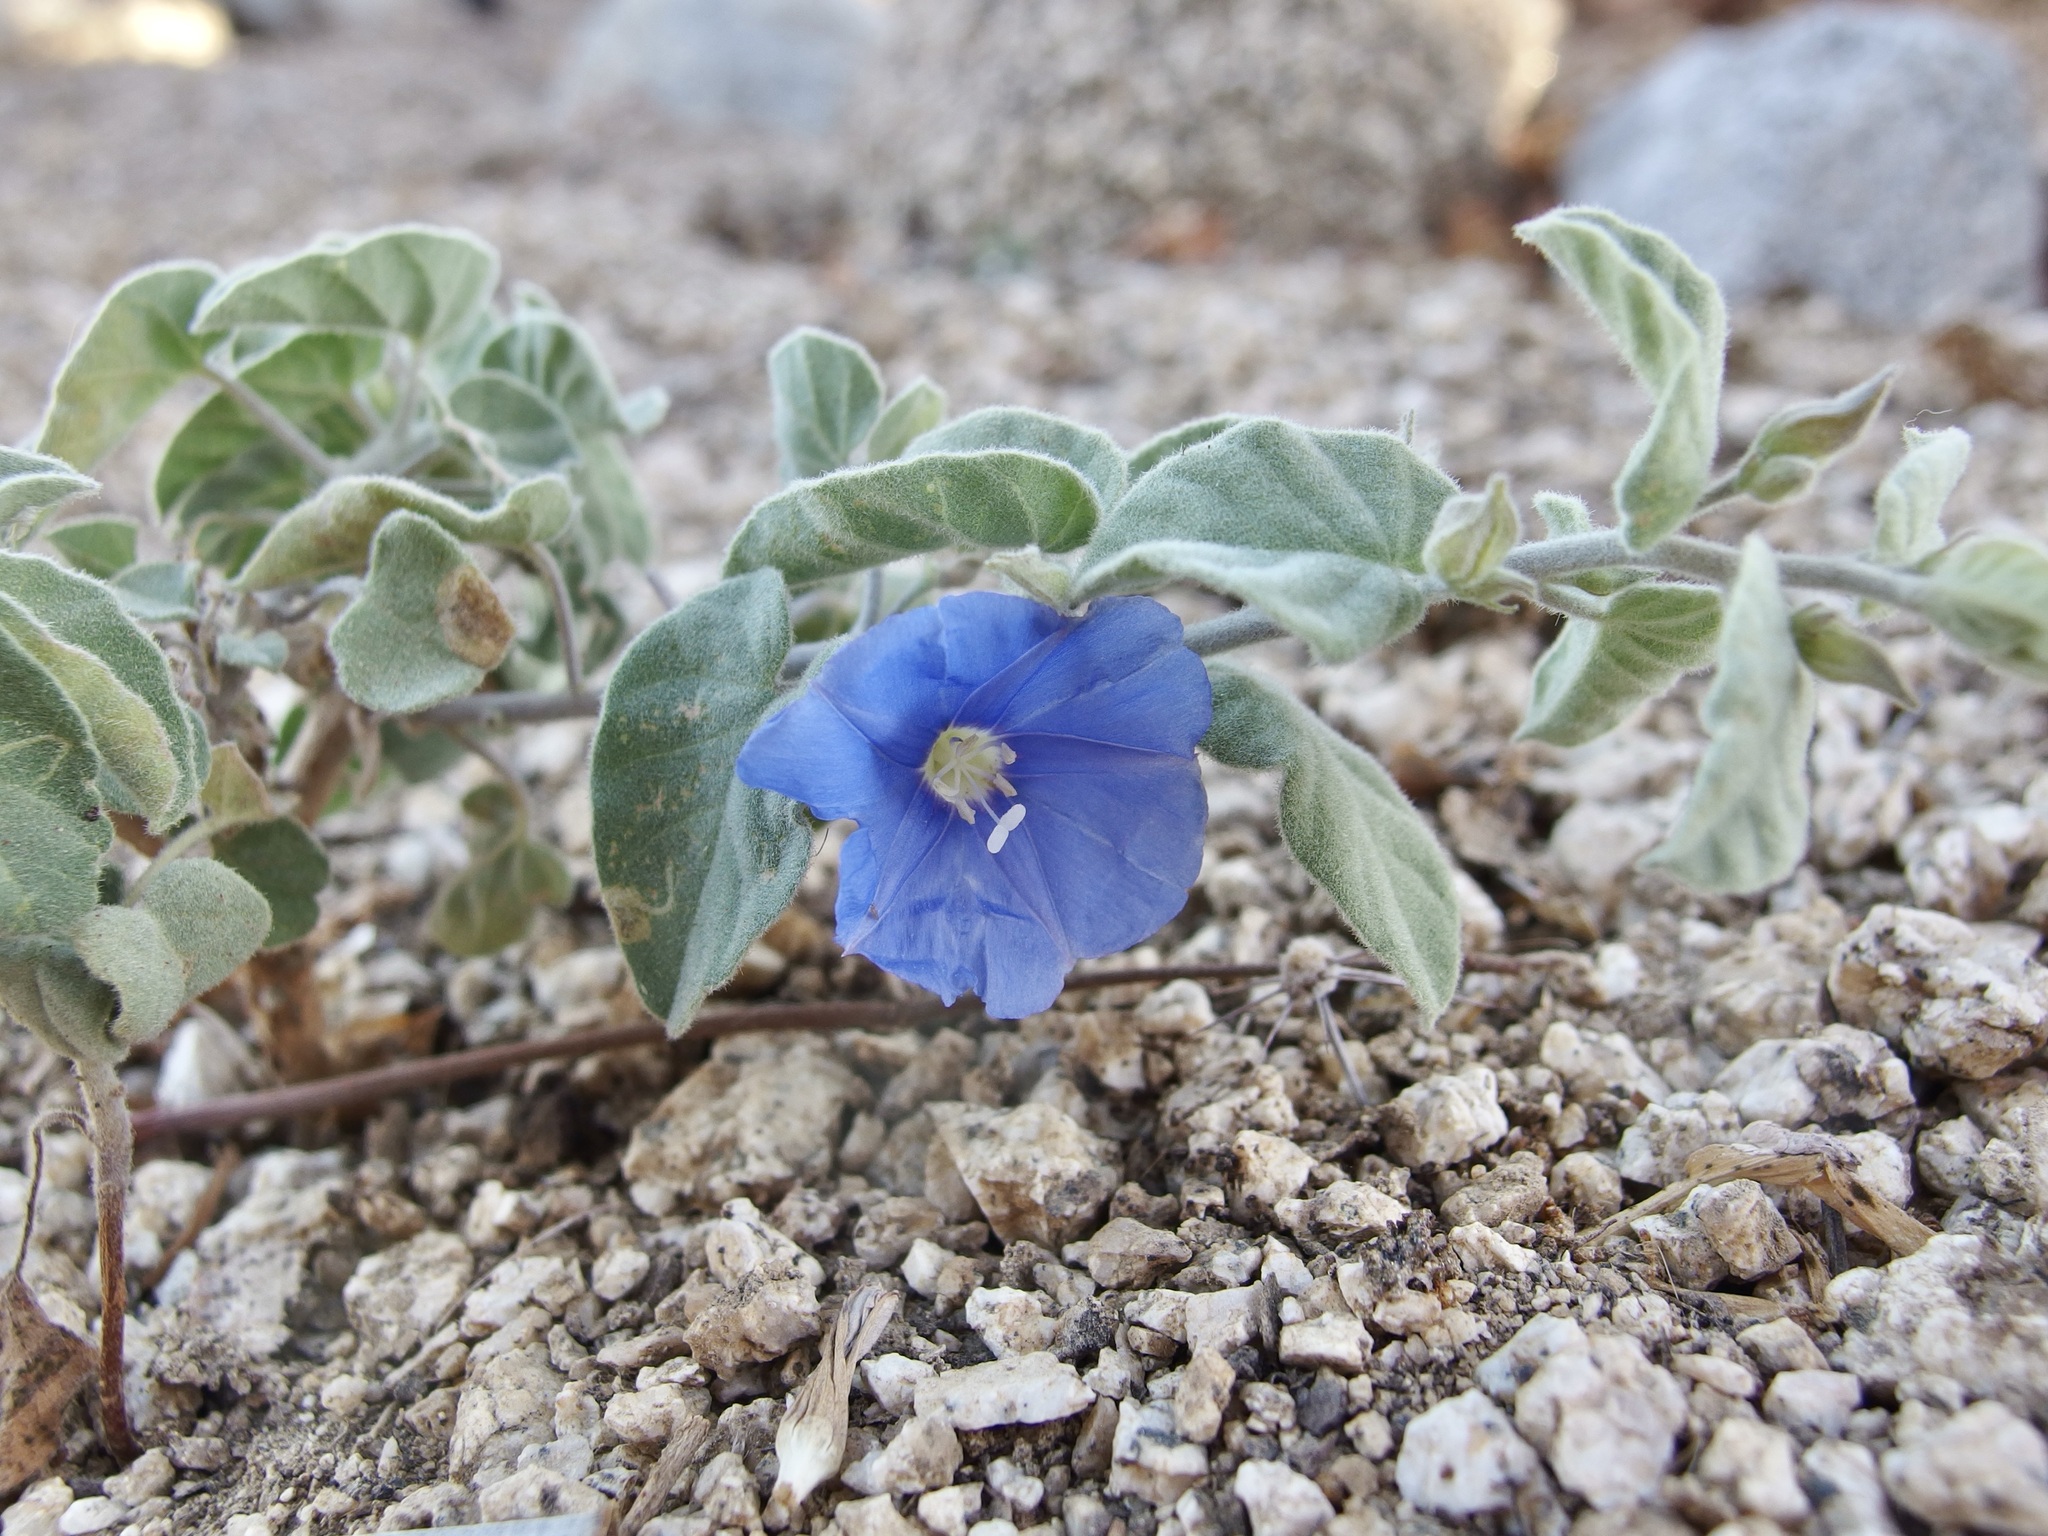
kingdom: Plantae
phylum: Tracheophyta
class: Magnoliopsida
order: Solanales
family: Convolvulaceae
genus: Jacquemontia
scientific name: Jacquemontia abutiloides
